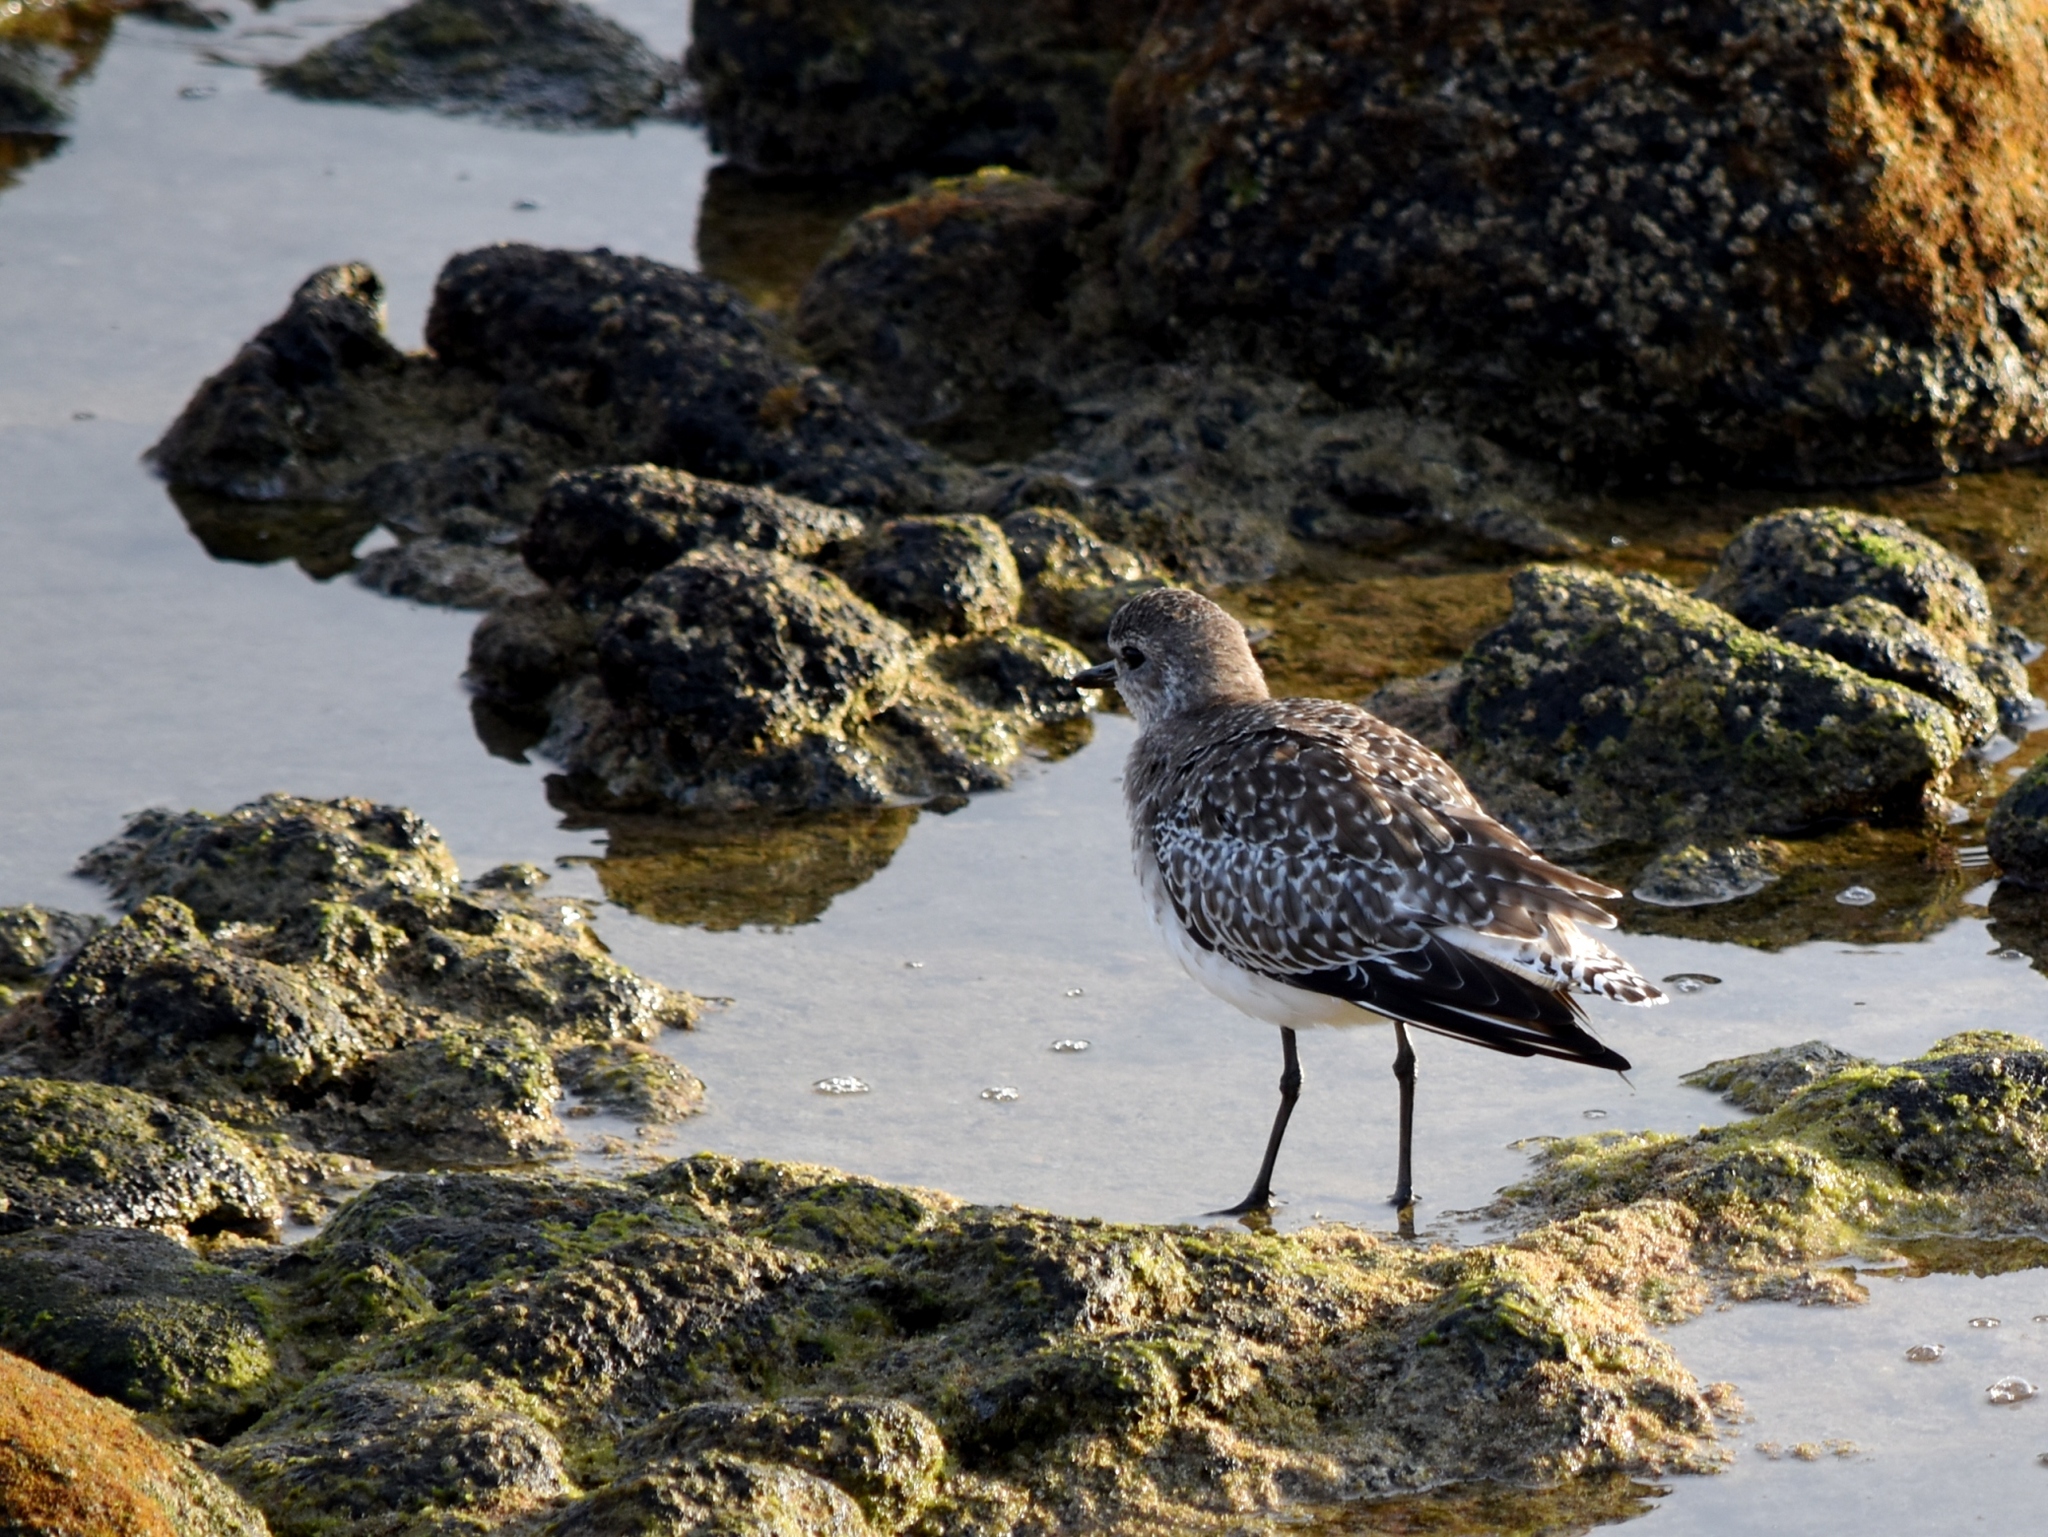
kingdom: Animalia
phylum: Chordata
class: Aves
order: Charadriiformes
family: Charadriidae
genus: Pluvialis
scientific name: Pluvialis squatarola
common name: Grey plover
